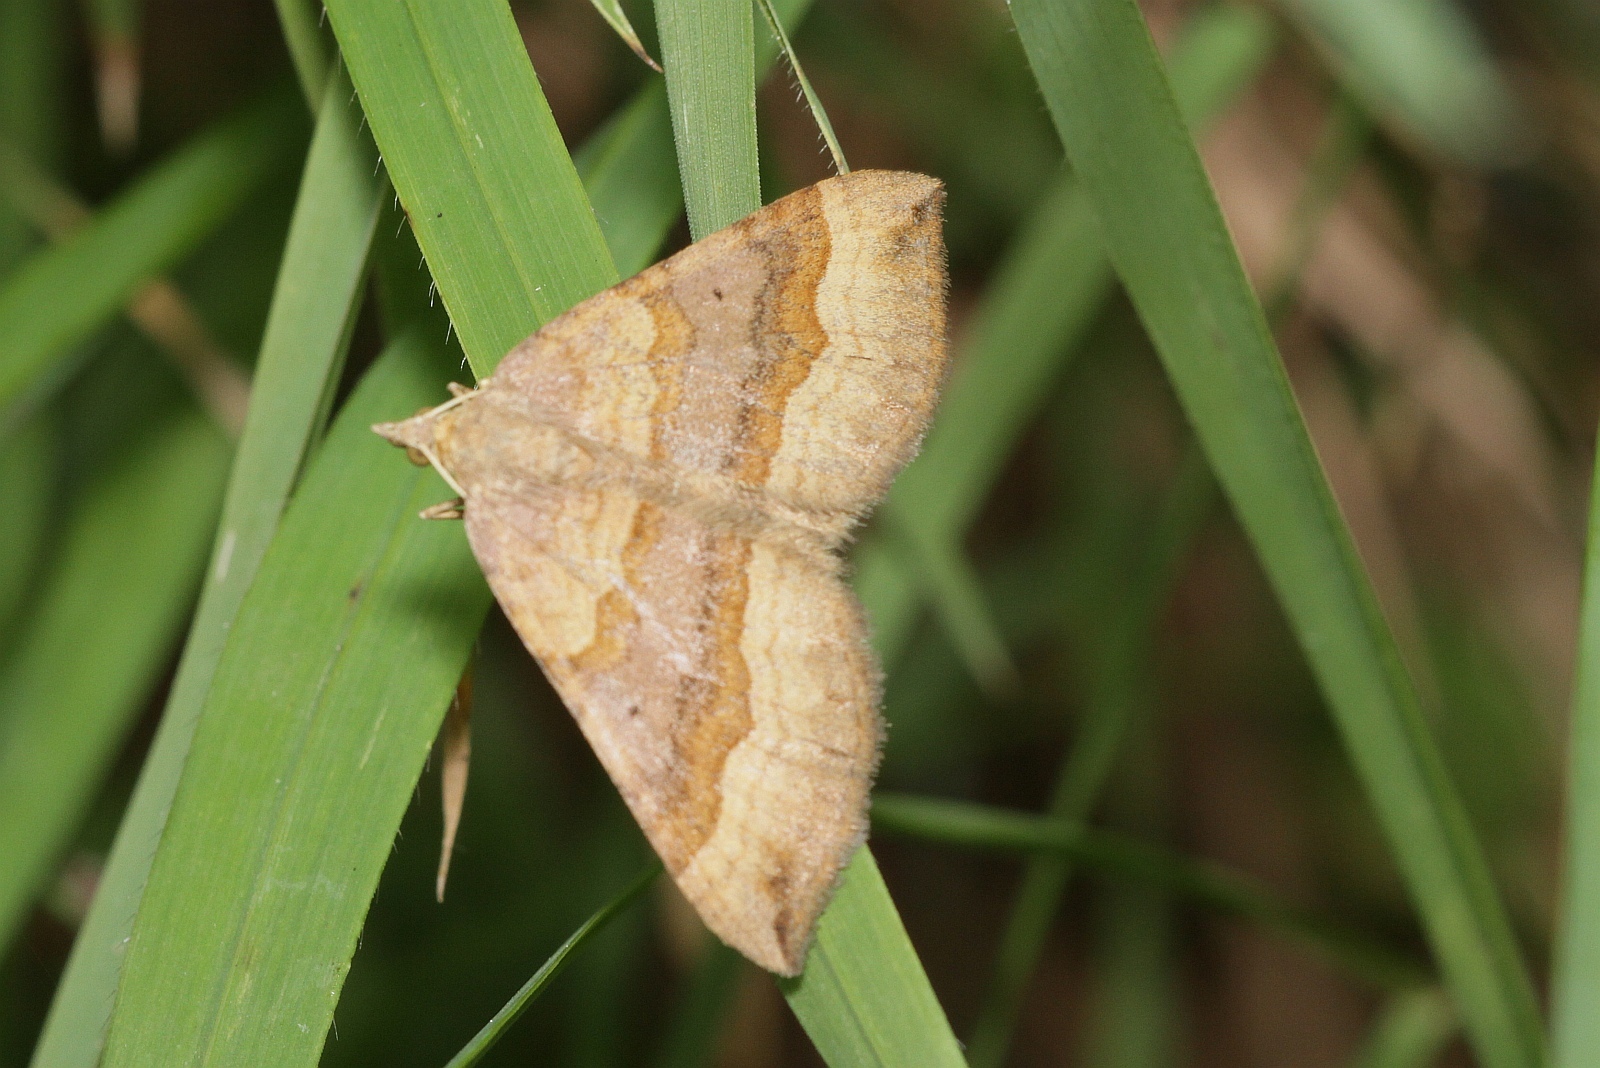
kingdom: Animalia
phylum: Arthropoda
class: Insecta
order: Lepidoptera
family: Geometridae
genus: Scotopteryx
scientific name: Scotopteryx chenopodiata
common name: Shaded broad-bar
